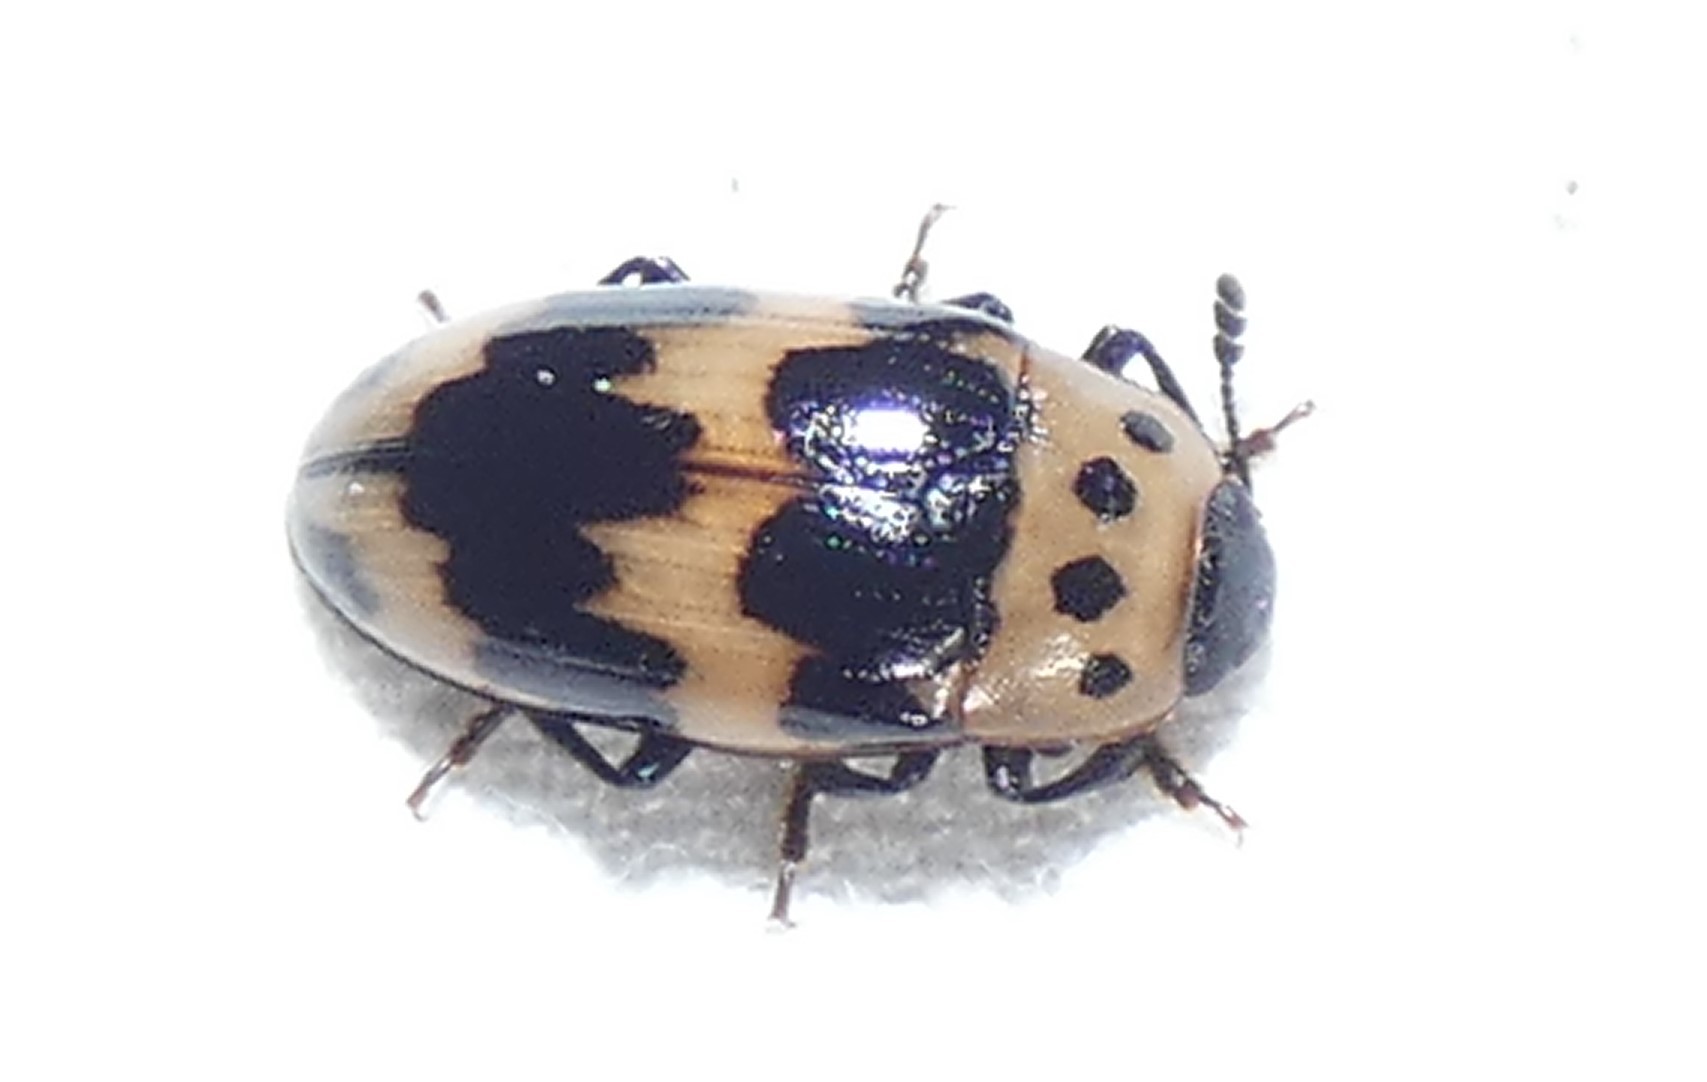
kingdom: Animalia
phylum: Arthropoda
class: Insecta
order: Coleoptera
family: Erotylidae
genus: Ischyrus
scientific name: Ischyrus quadripunctatus
